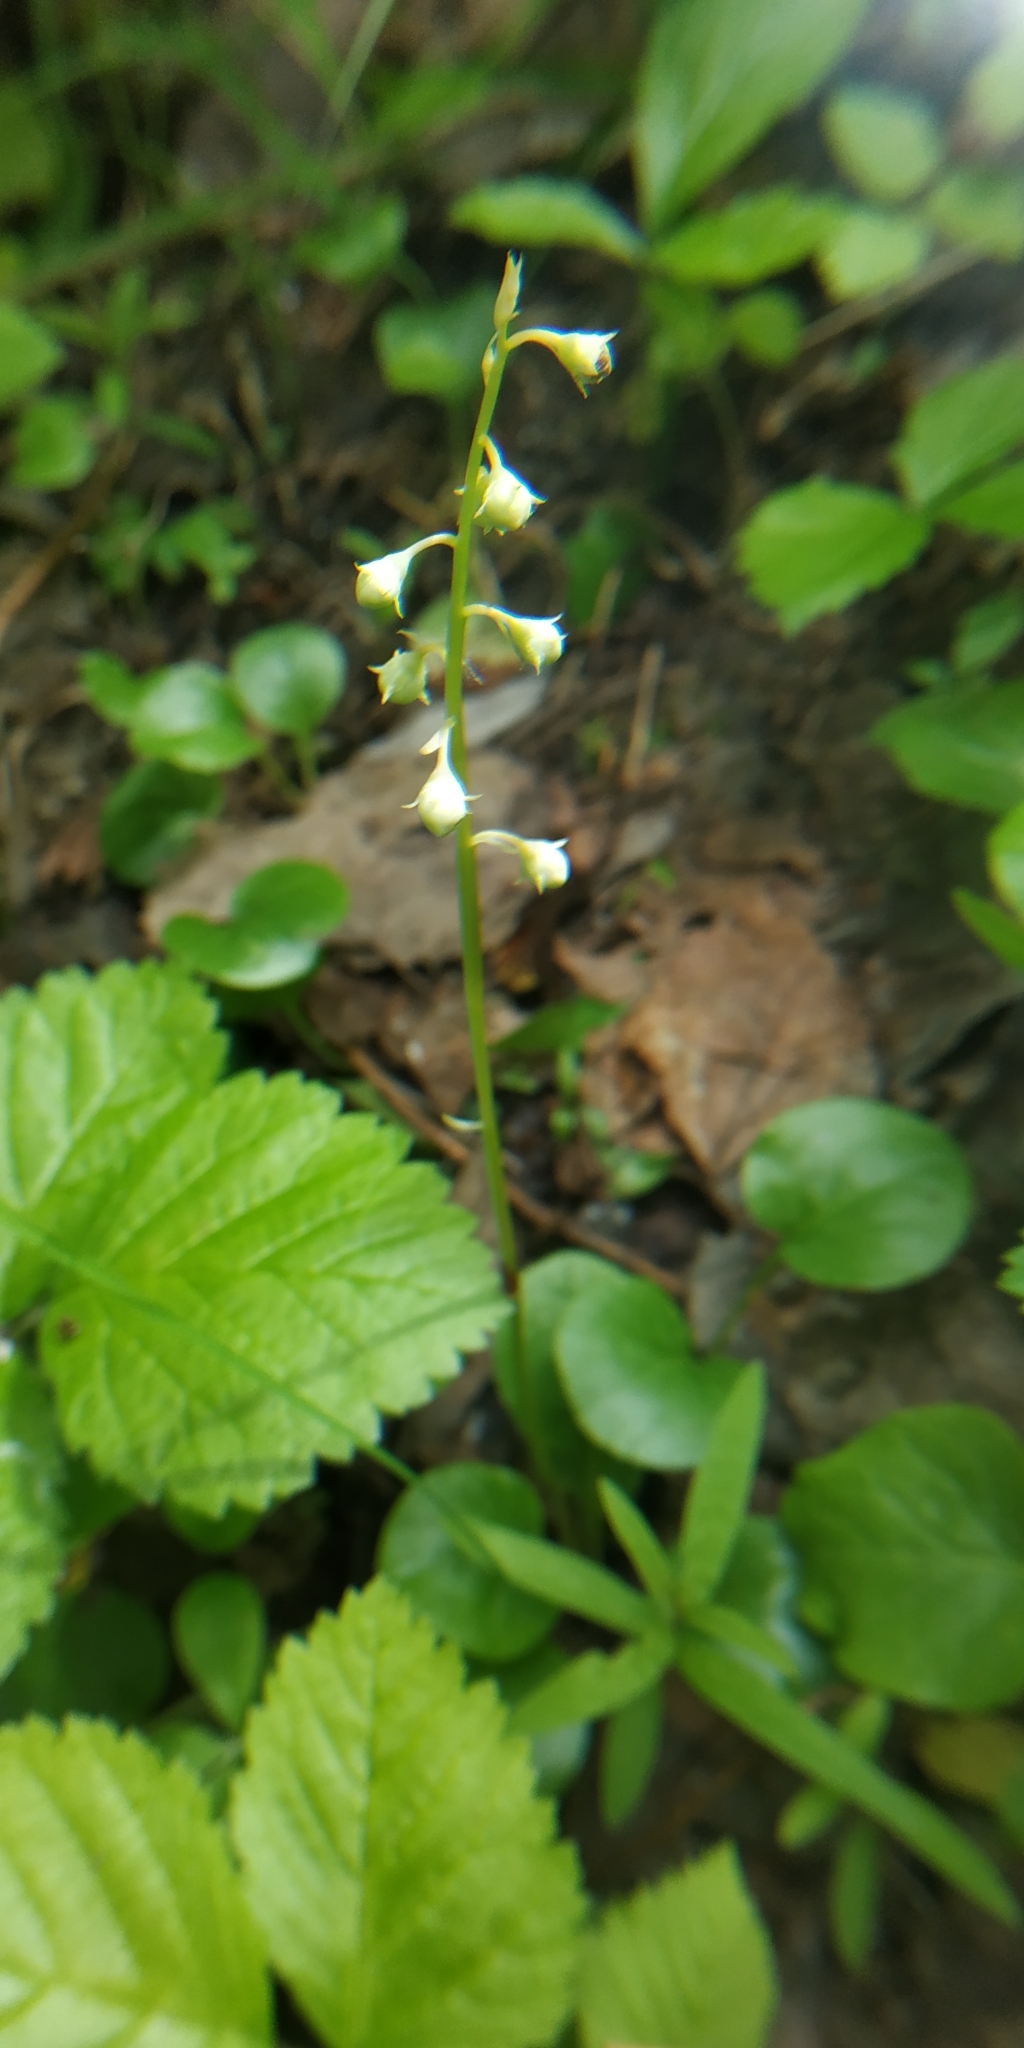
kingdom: Plantae
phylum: Tracheophyta
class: Magnoliopsida
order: Ericales
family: Ericaceae
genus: Pyrola
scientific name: Pyrola rotundifolia
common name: Round-leaved wintergreen
